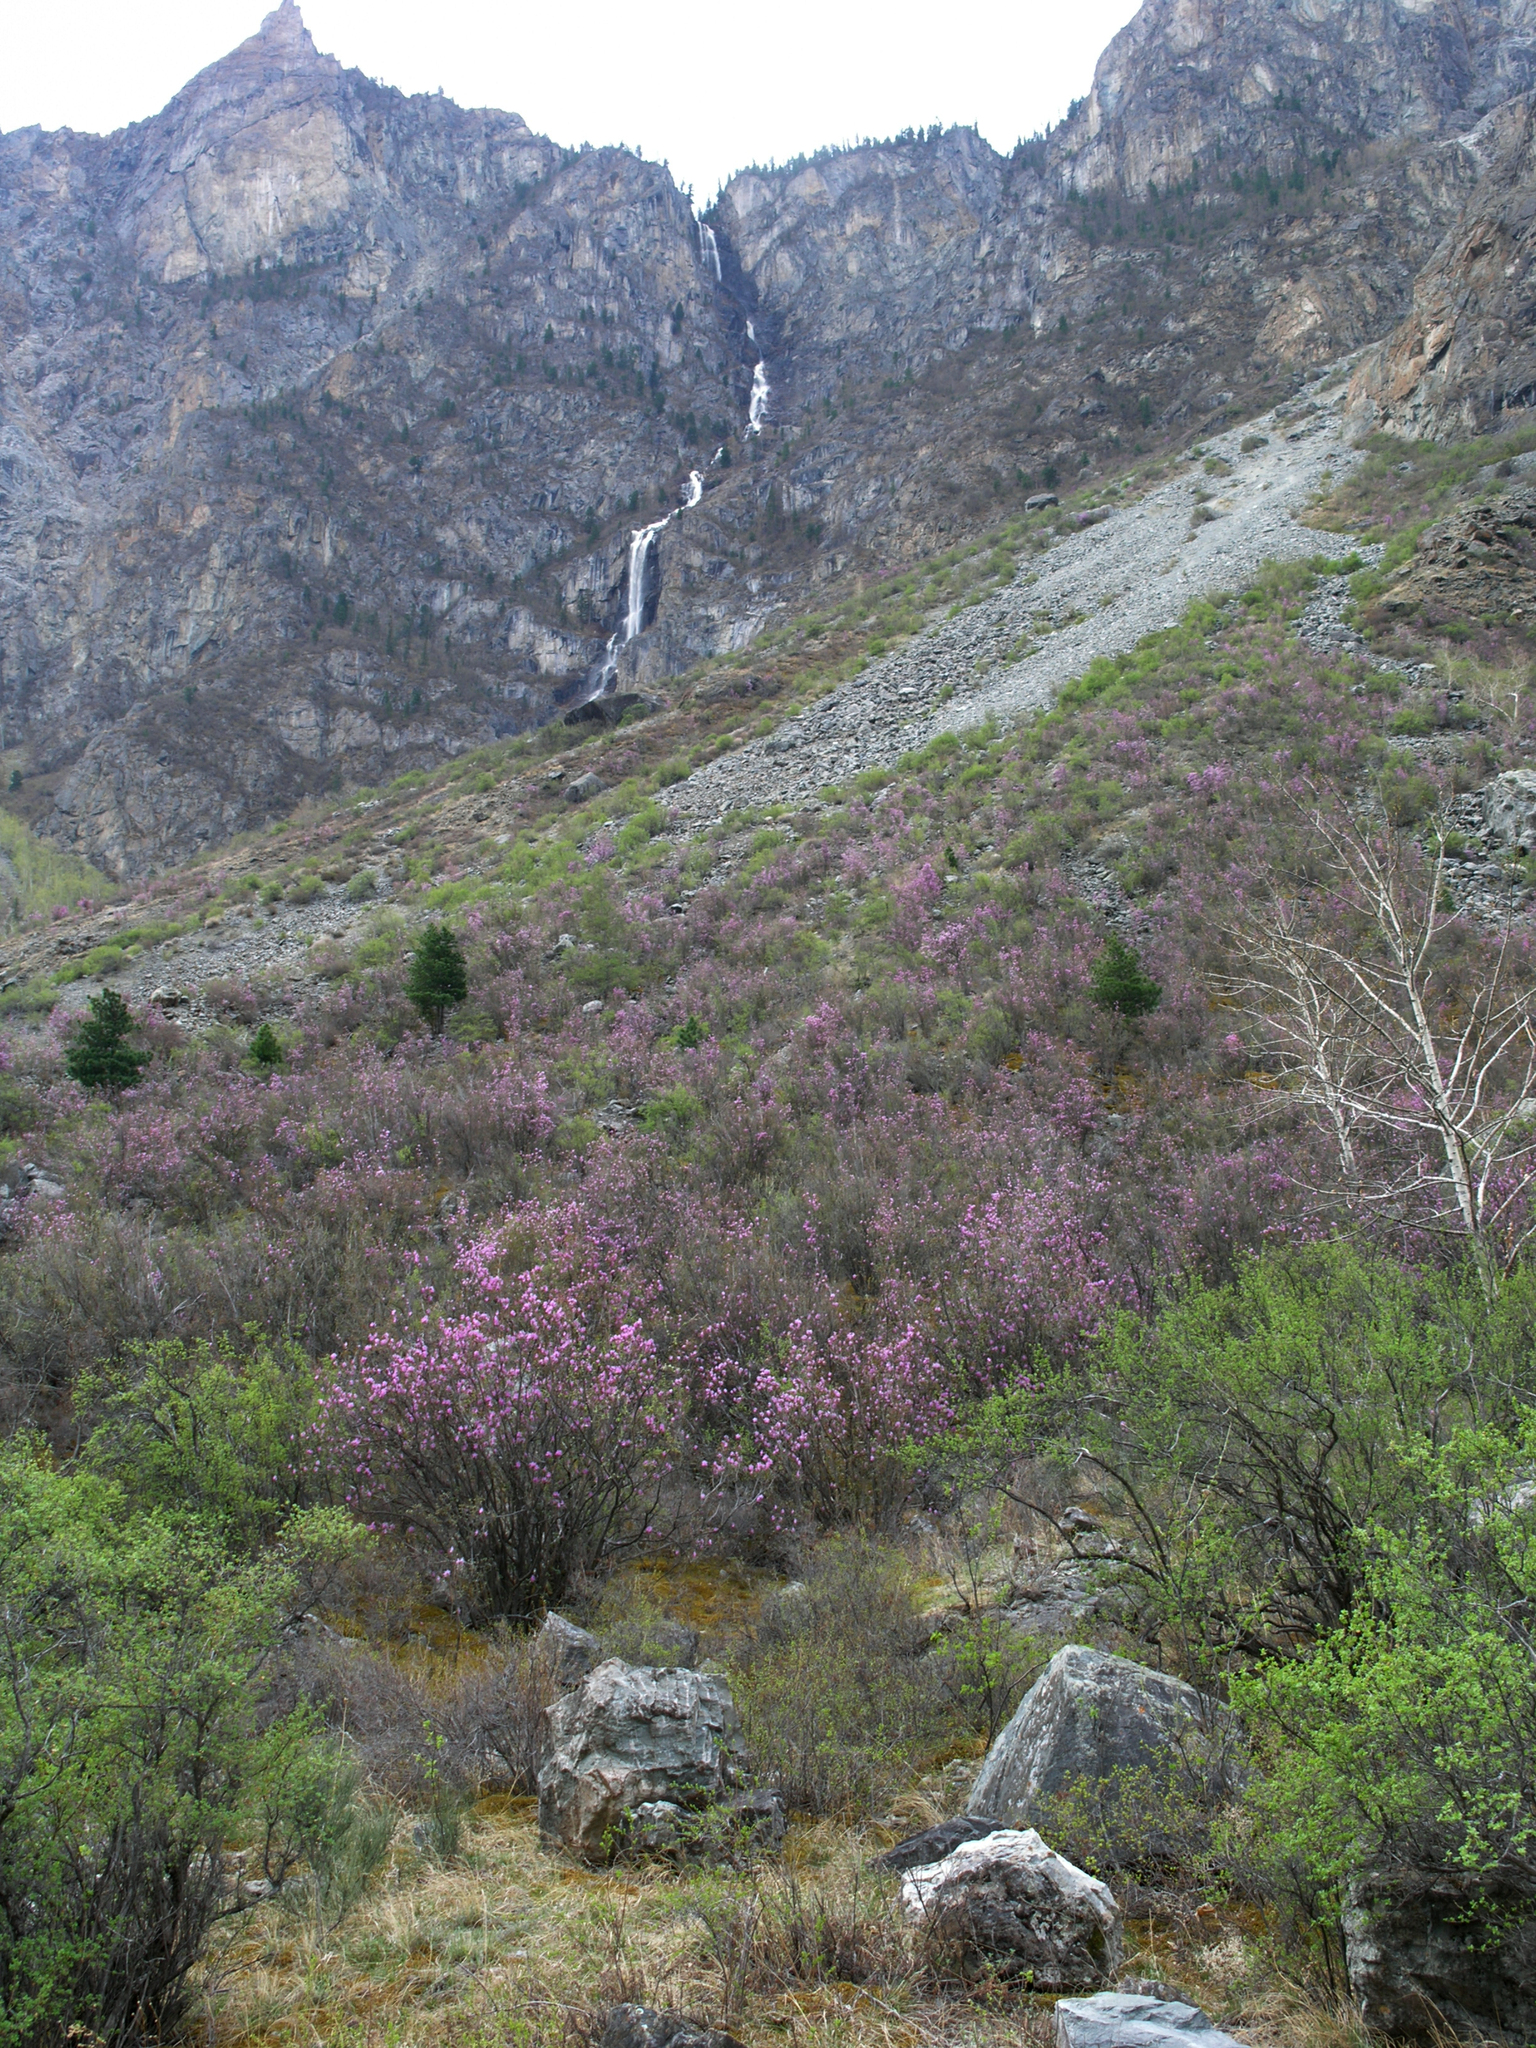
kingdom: Plantae
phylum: Tracheophyta
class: Magnoliopsida
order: Malpighiales
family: Salicaceae
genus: Populus
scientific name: Populus laurifolia
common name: Laurel-leaf poplar
